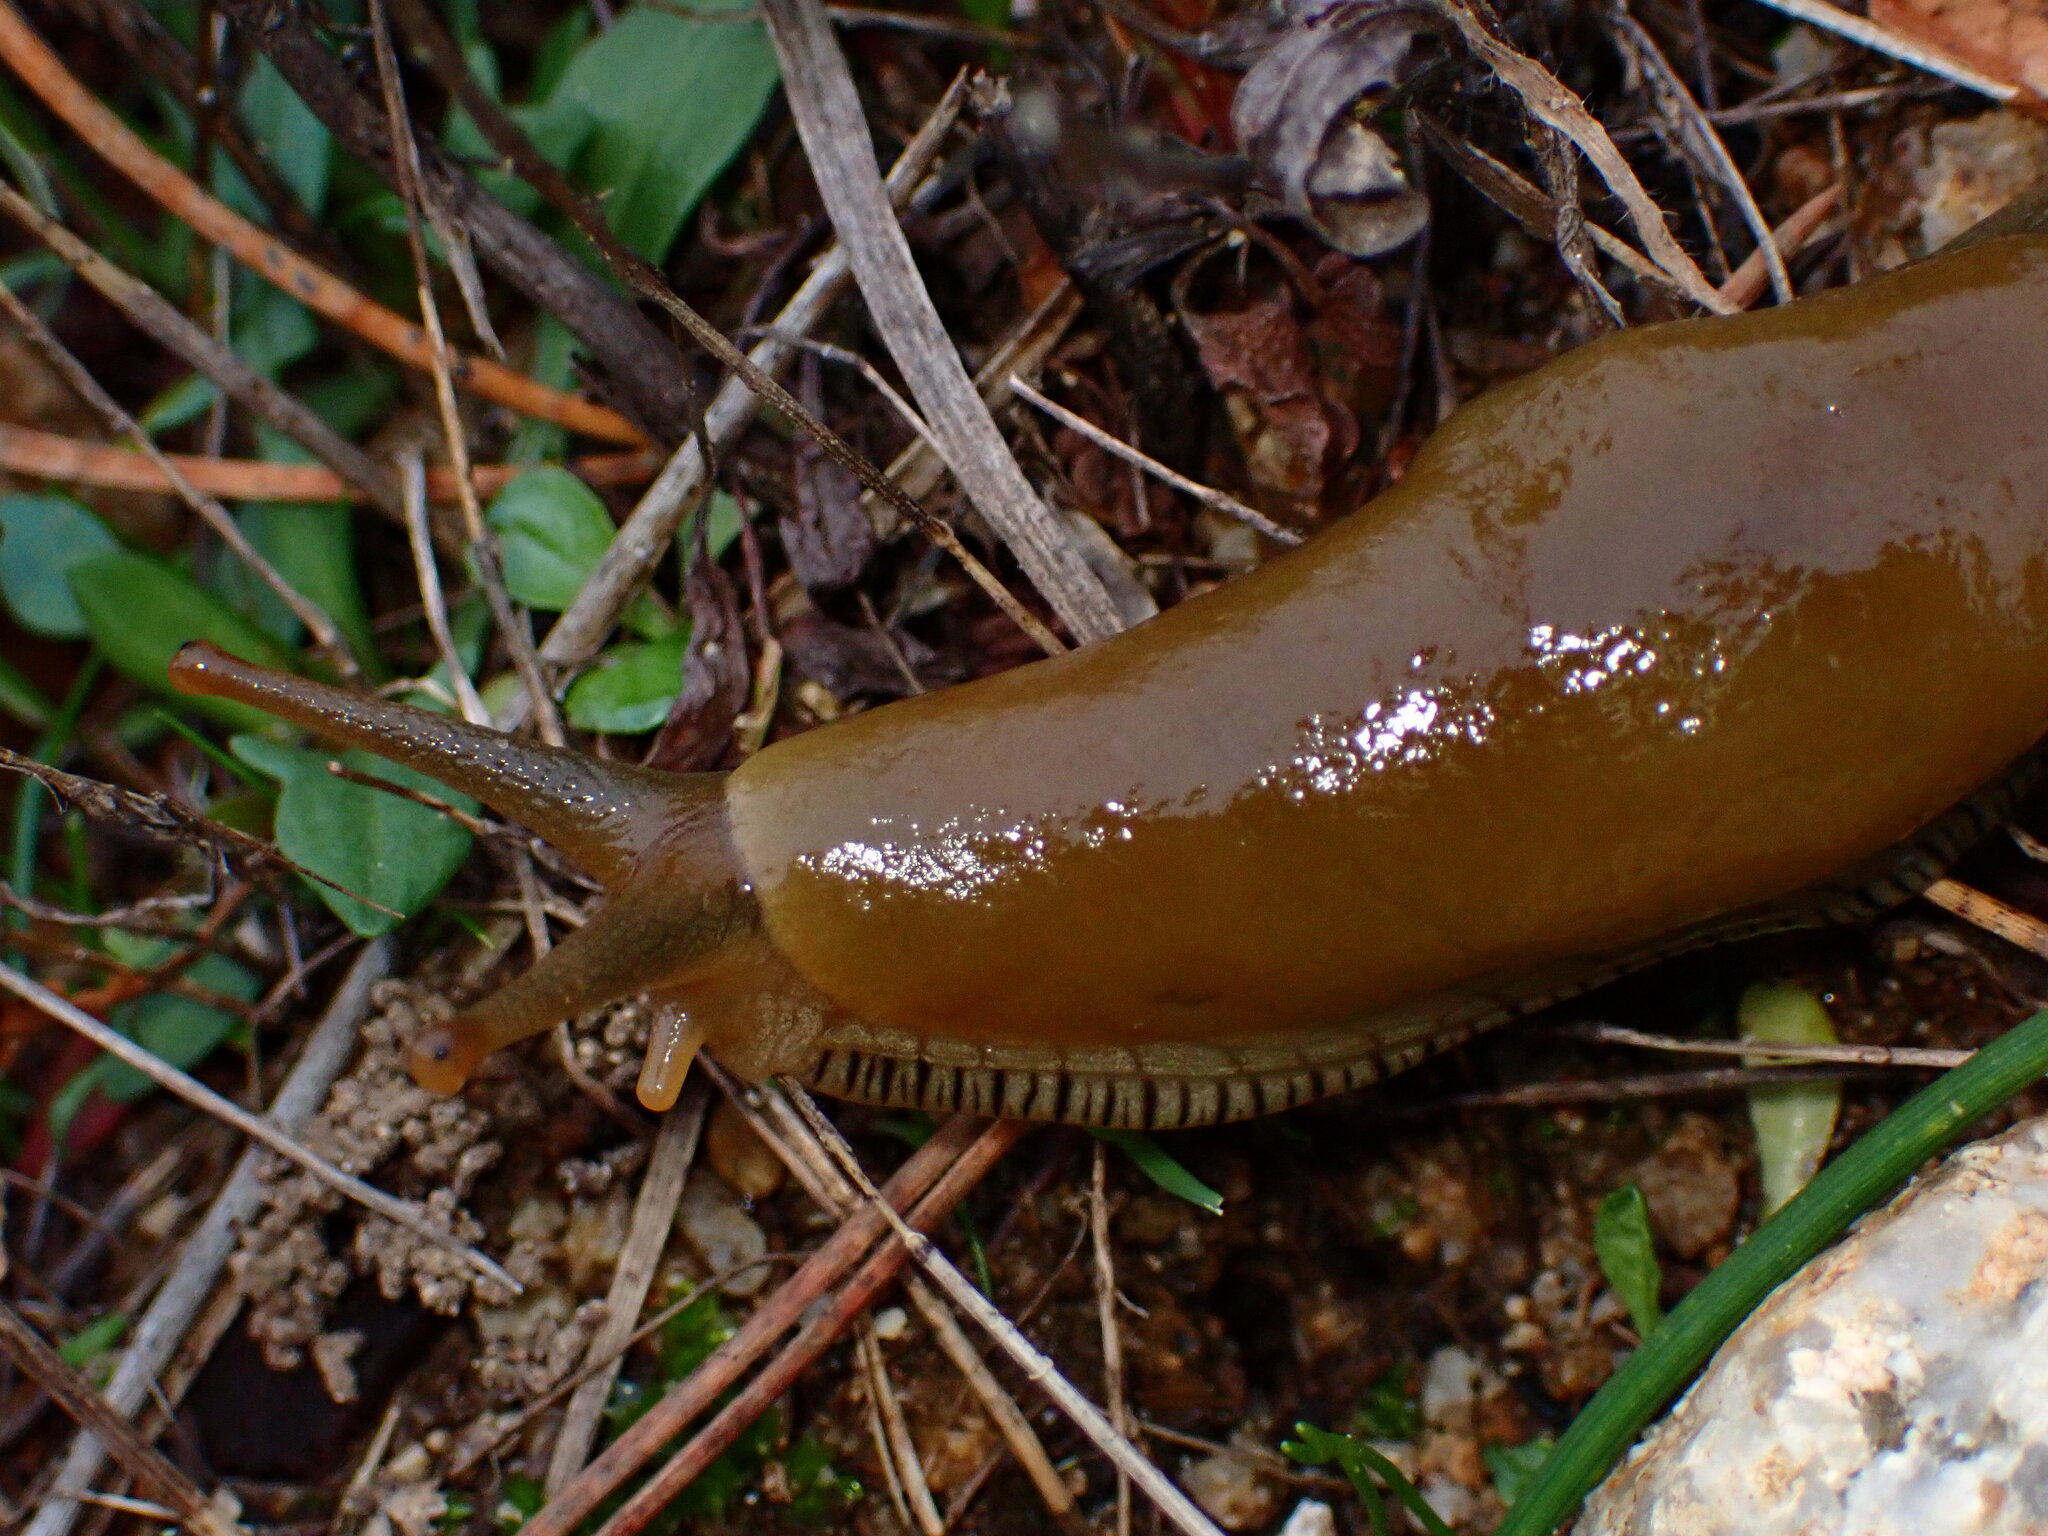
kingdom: Animalia
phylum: Mollusca
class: Gastropoda
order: Stylommatophora
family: Ariolimacidae
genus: Ariolimax
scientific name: Ariolimax buttoni
